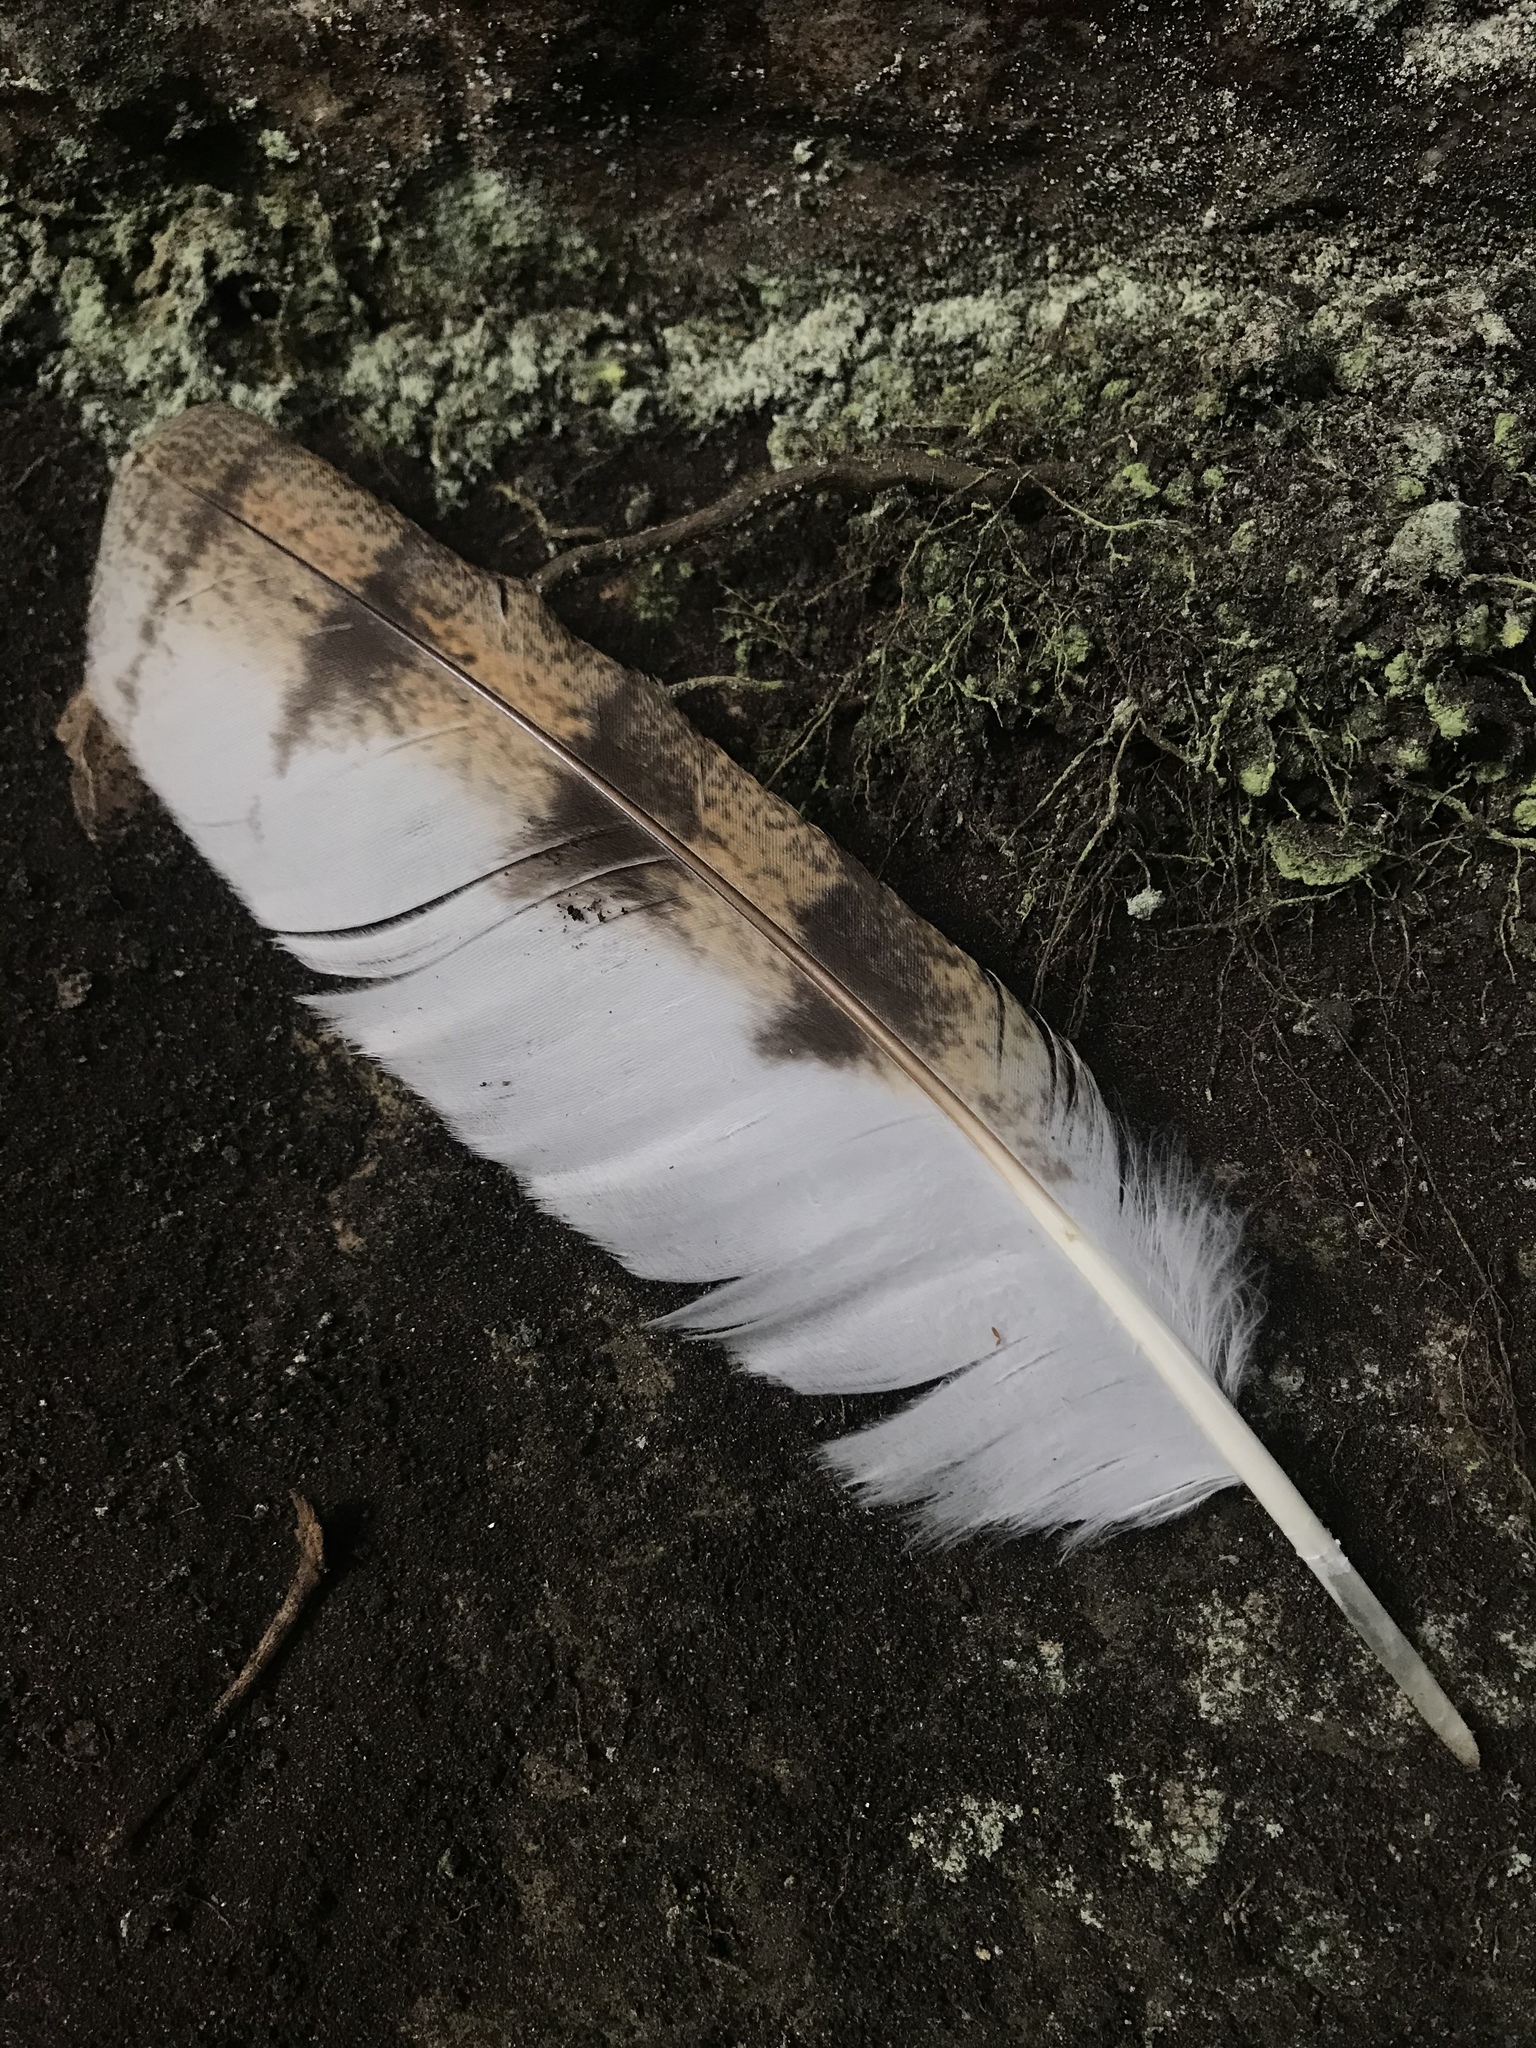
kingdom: Animalia
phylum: Chordata
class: Aves
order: Strigiformes
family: Tytonidae
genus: Tyto
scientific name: Tyto alba
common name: Barn owl
